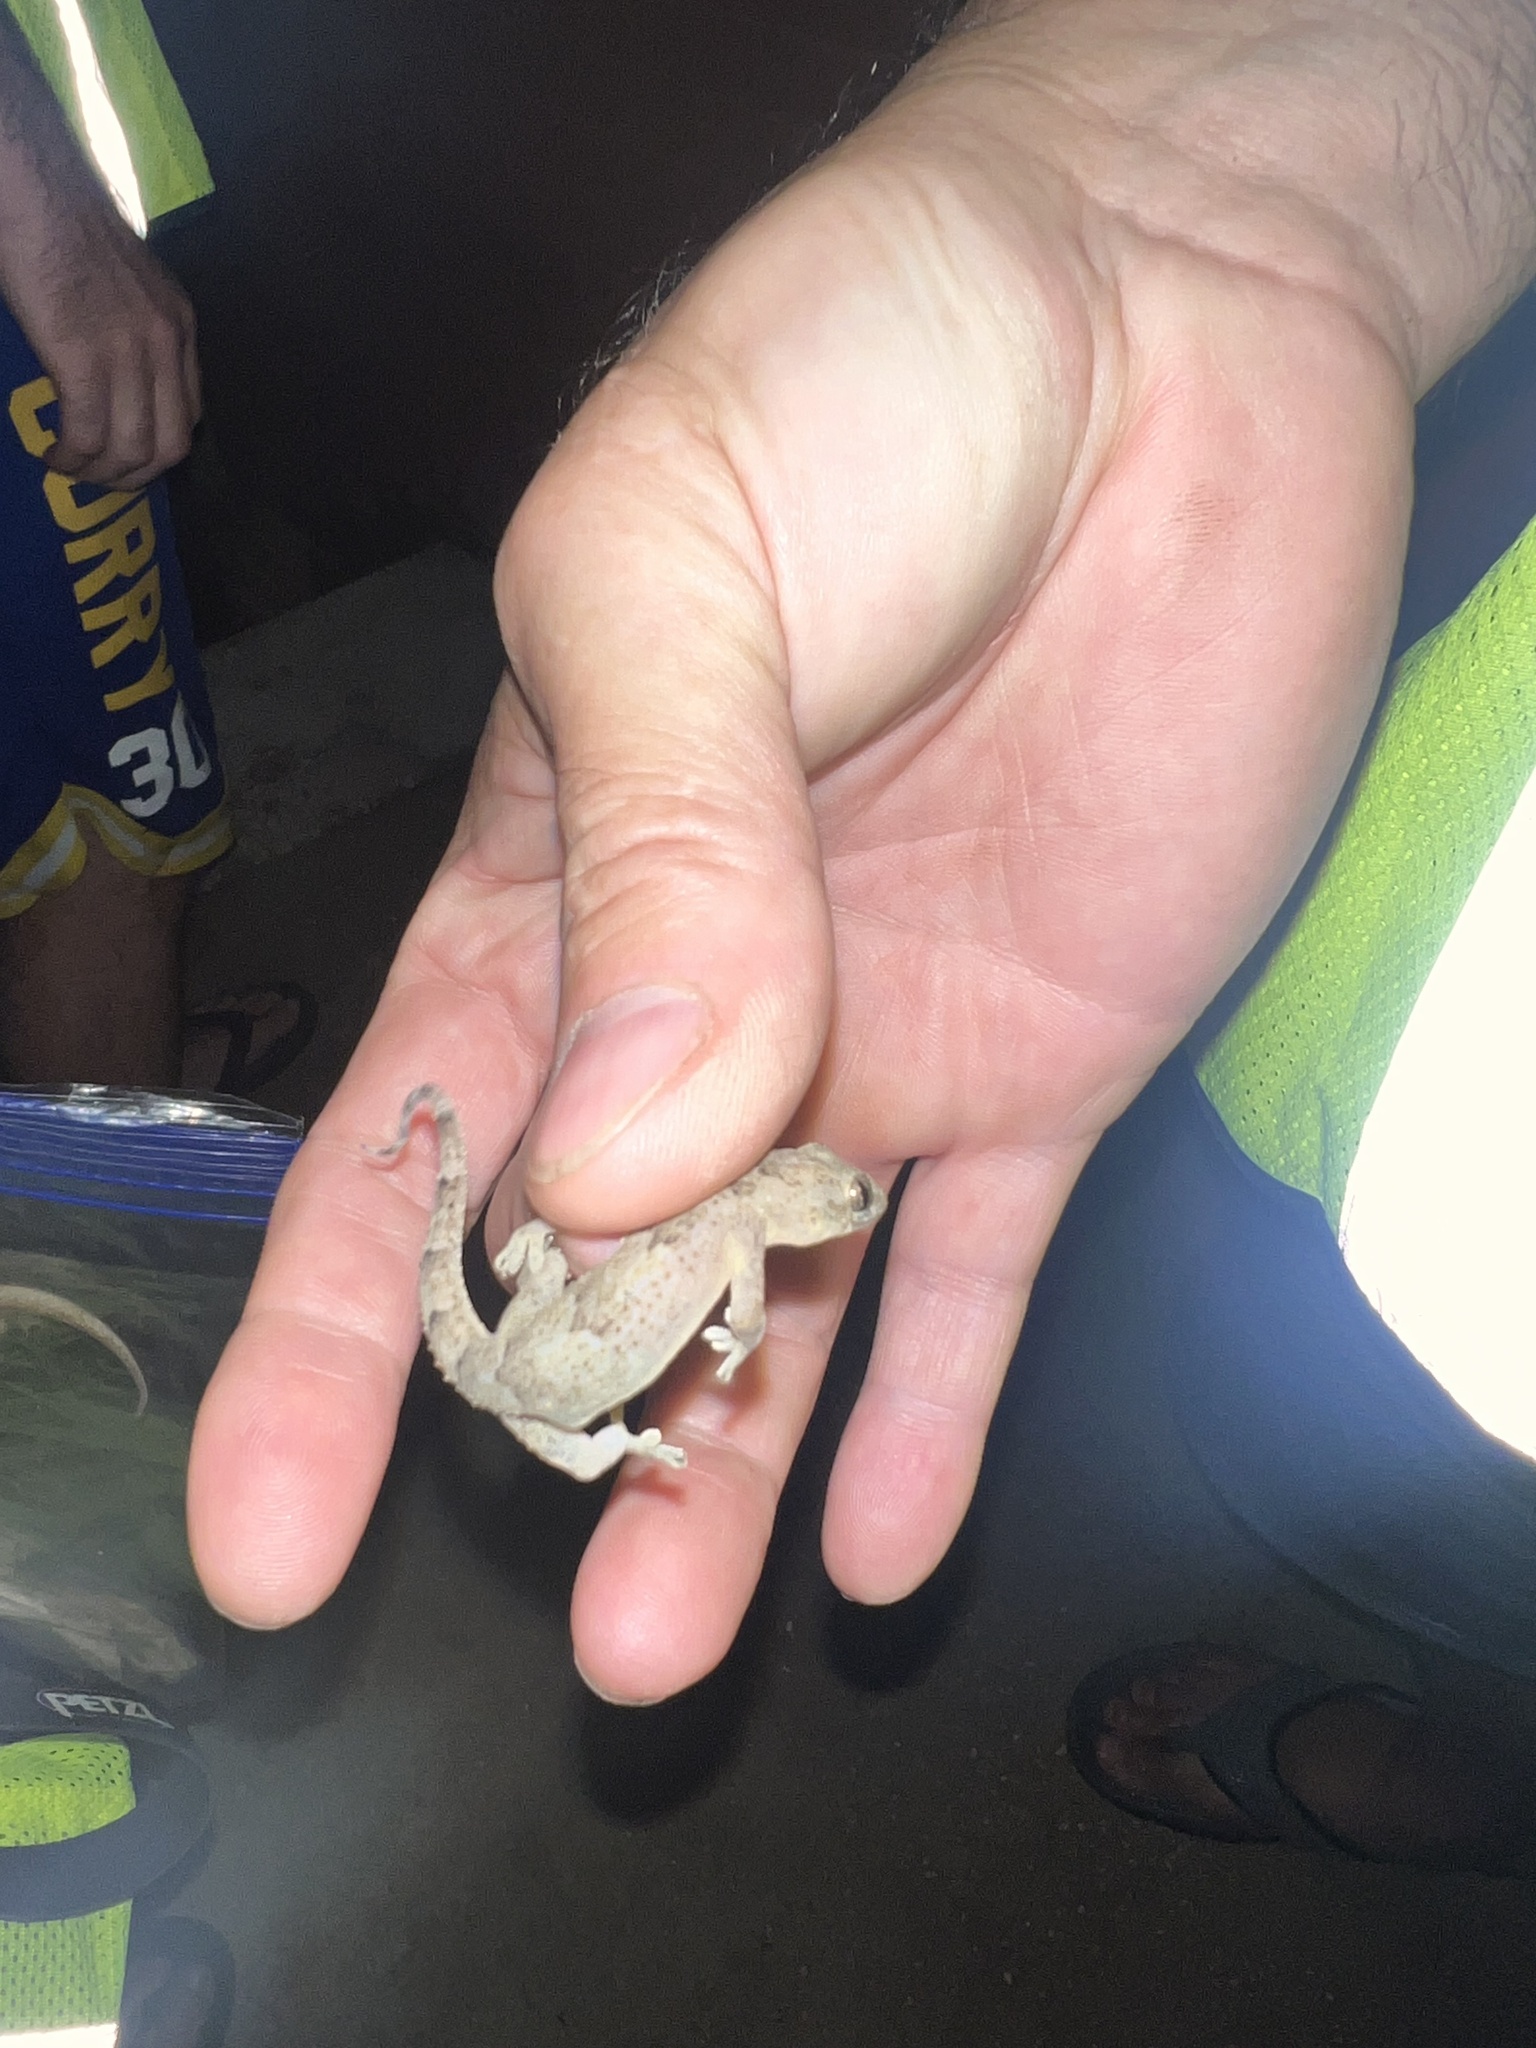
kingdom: Animalia
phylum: Chordata
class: Squamata
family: Gekkonidae
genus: Hemidactylus
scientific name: Hemidactylus mabouia
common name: House gecko
